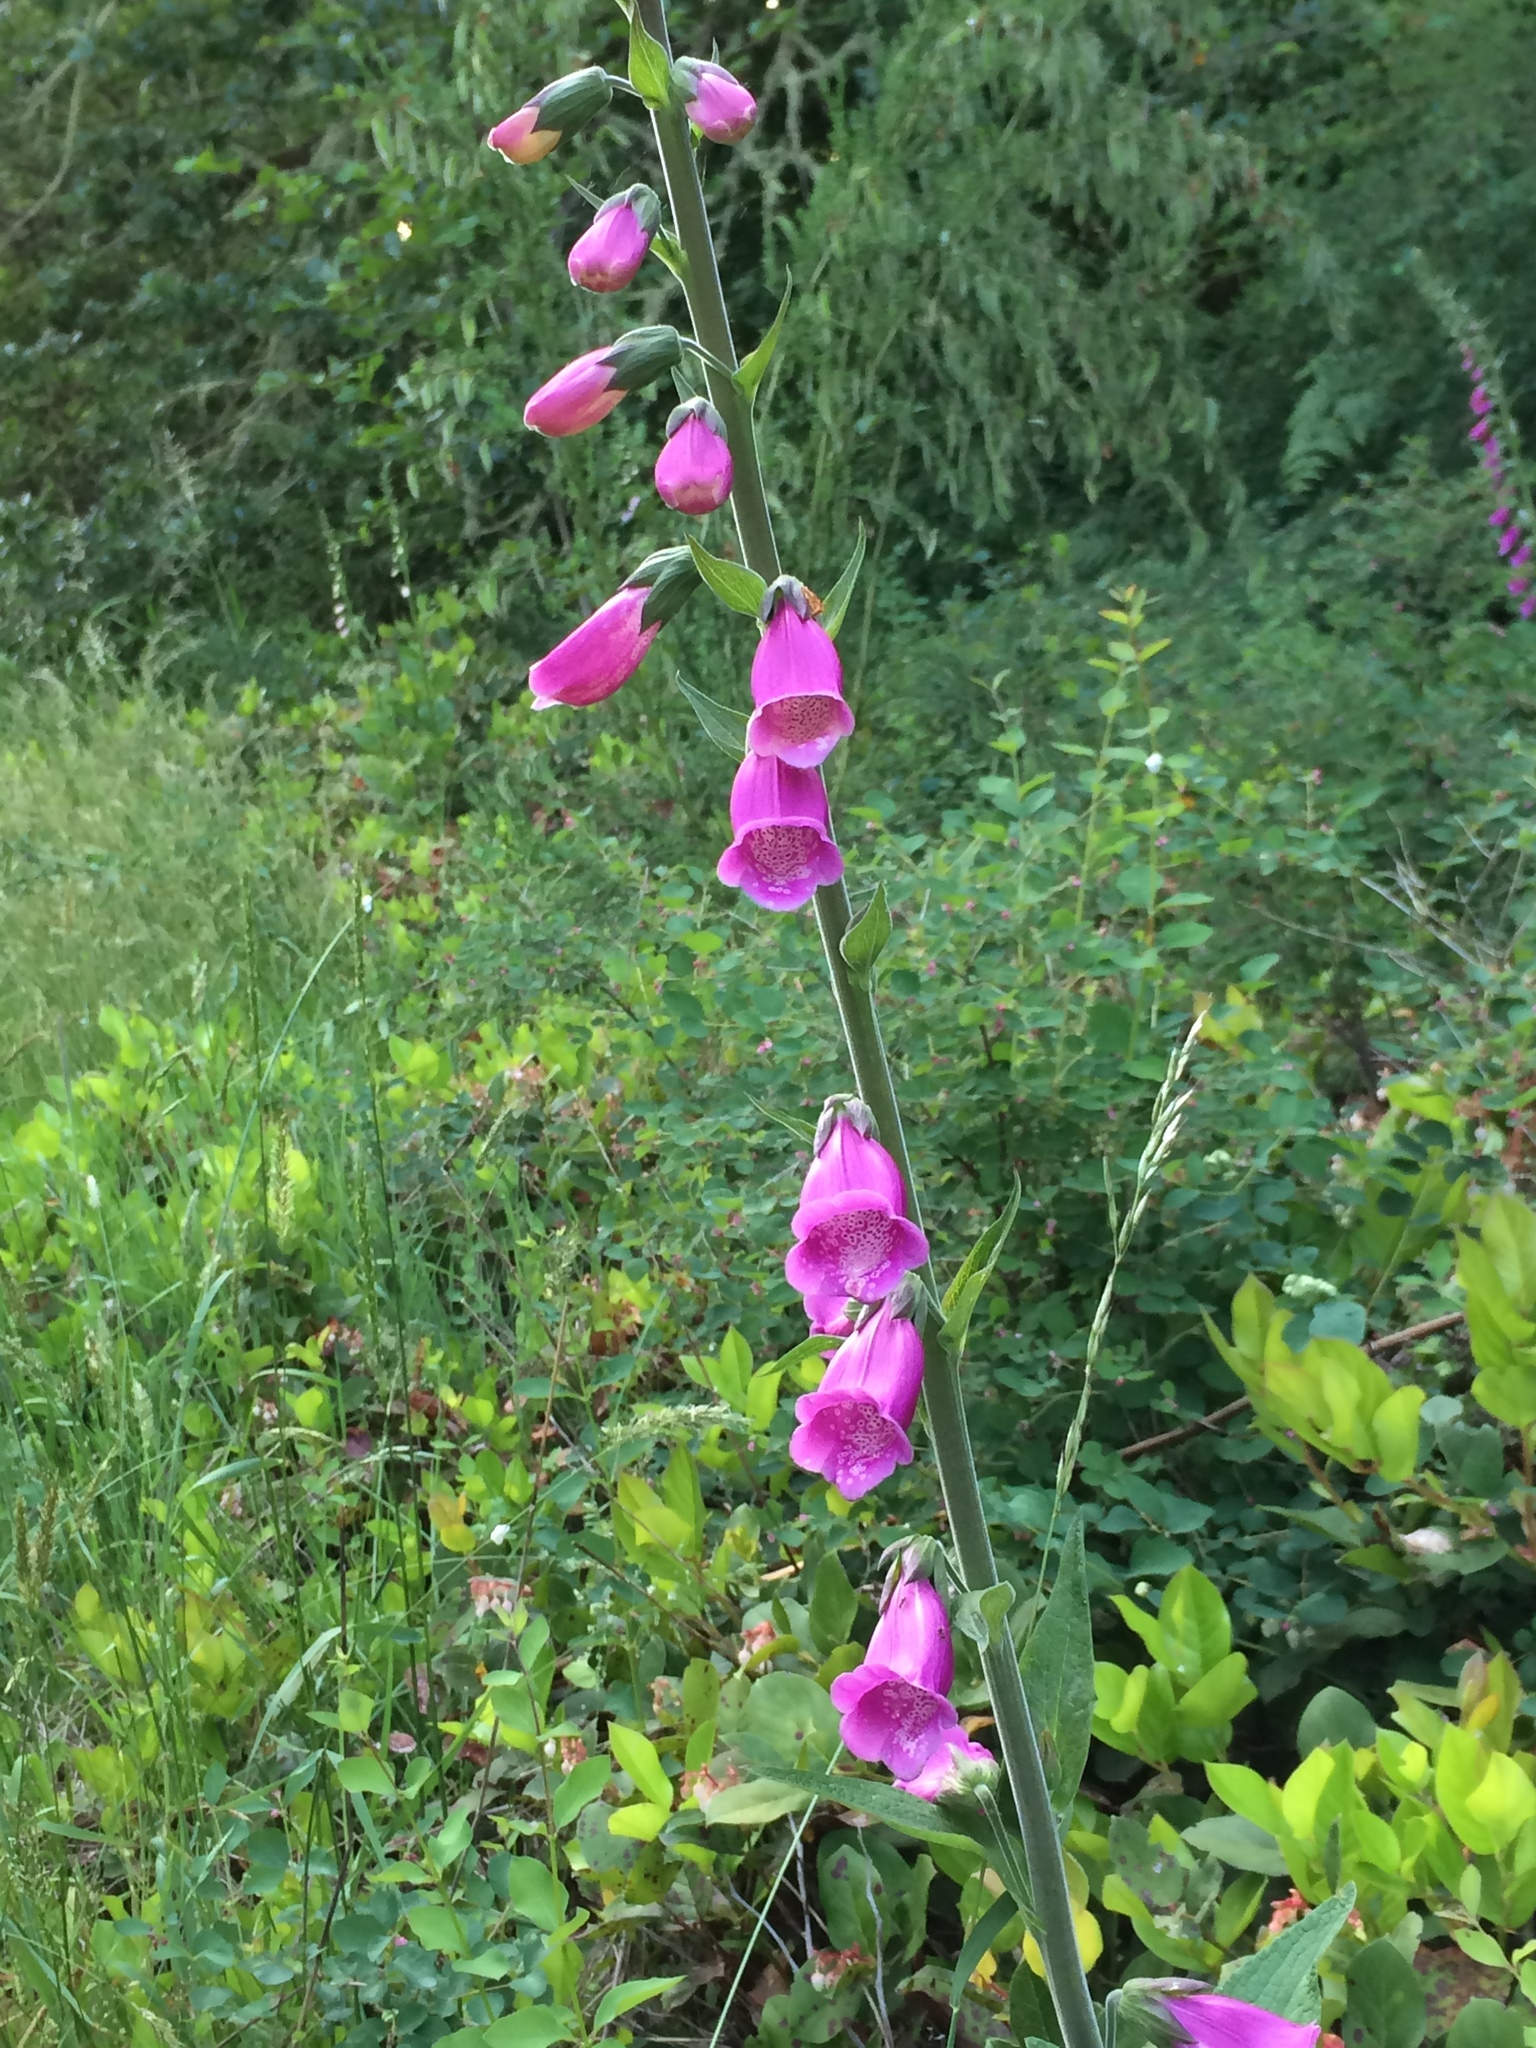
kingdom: Plantae
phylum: Tracheophyta
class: Magnoliopsida
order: Lamiales
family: Plantaginaceae
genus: Digitalis
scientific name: Digitalis purpurea
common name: Foxglove
